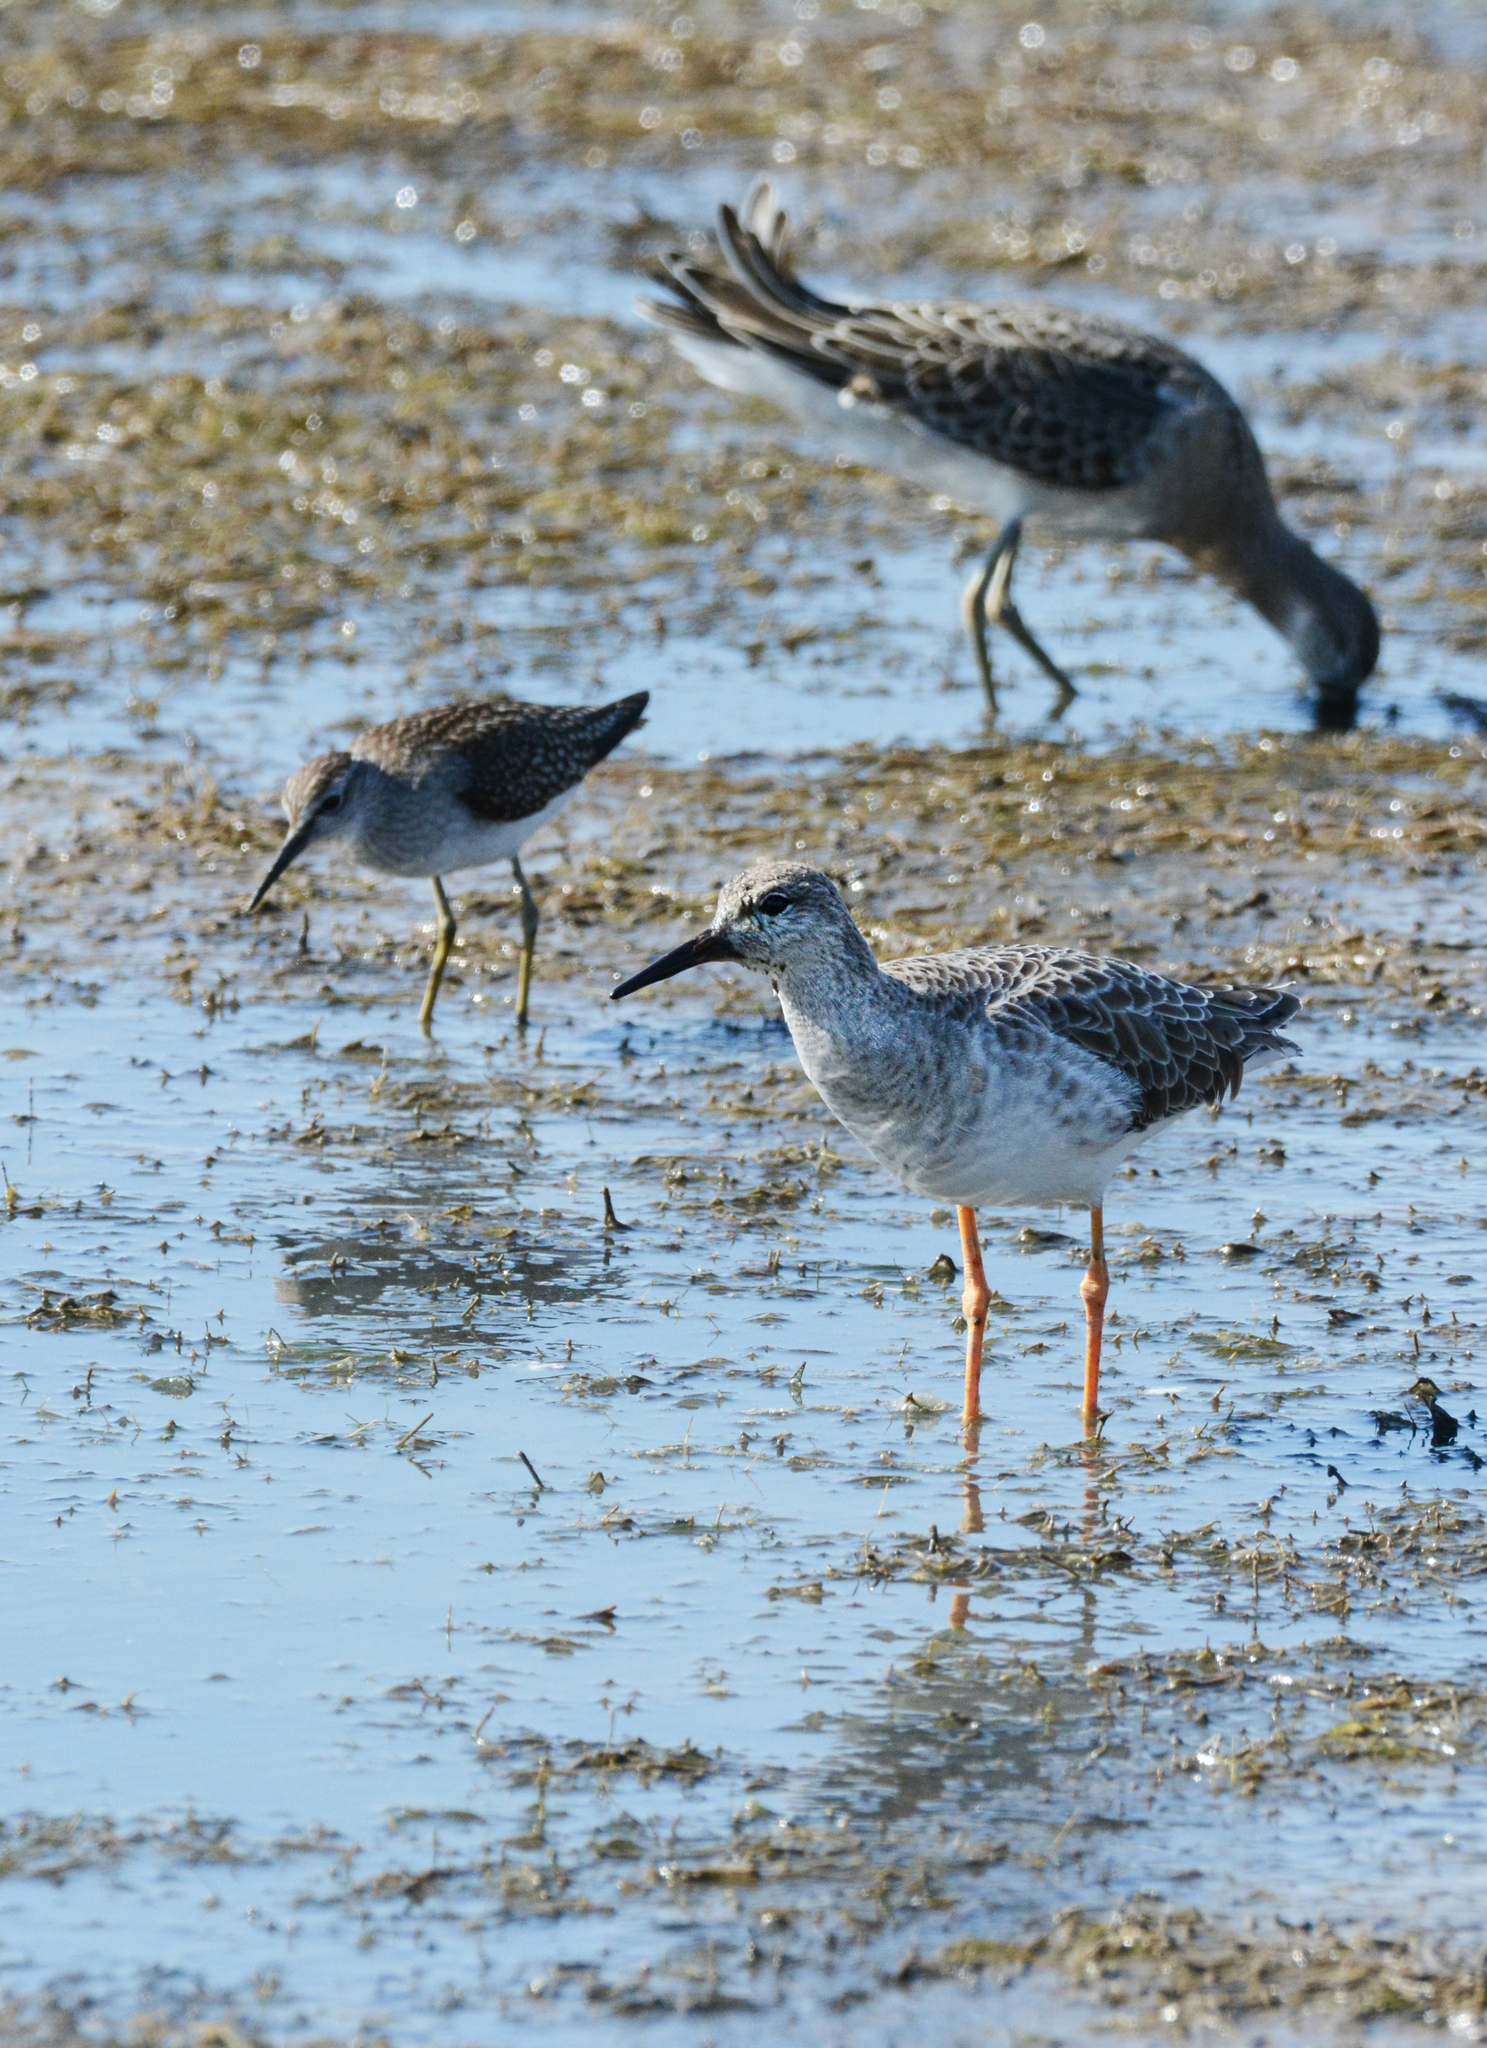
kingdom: Animalia
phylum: Chordata
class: Aves
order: Charadriiformes
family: Scolopacidae
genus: Calidris
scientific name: Calidris pugnax
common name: Ruff
